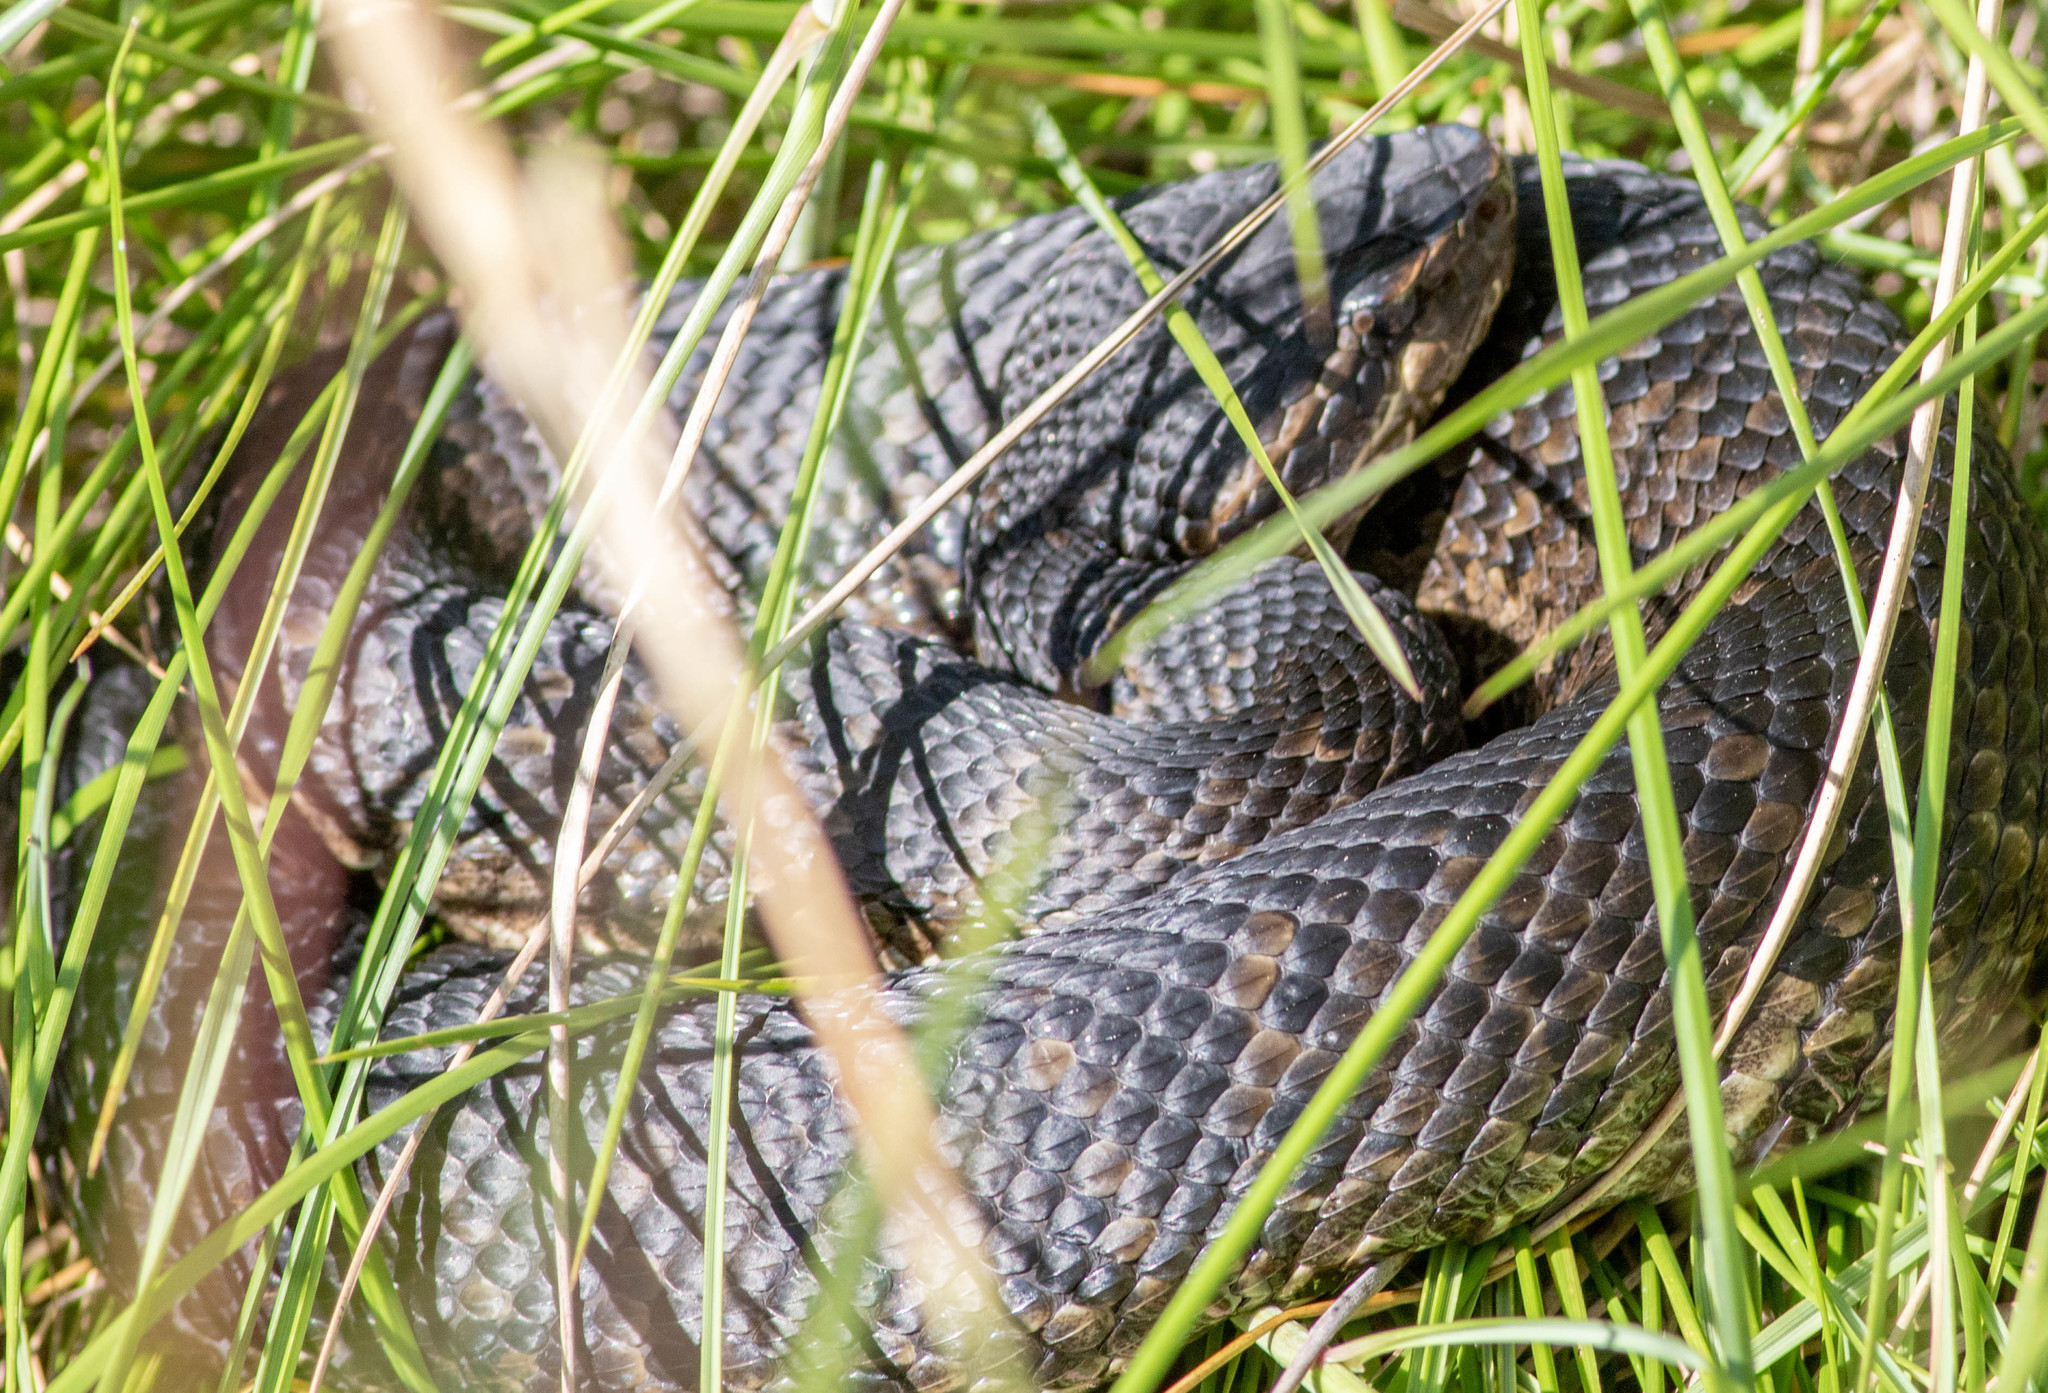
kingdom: Animalia
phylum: Chordata
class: Squamata
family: Viperidae
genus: Agkistrodon
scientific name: Agkistrodon piscivorus
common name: Cottonmouth
